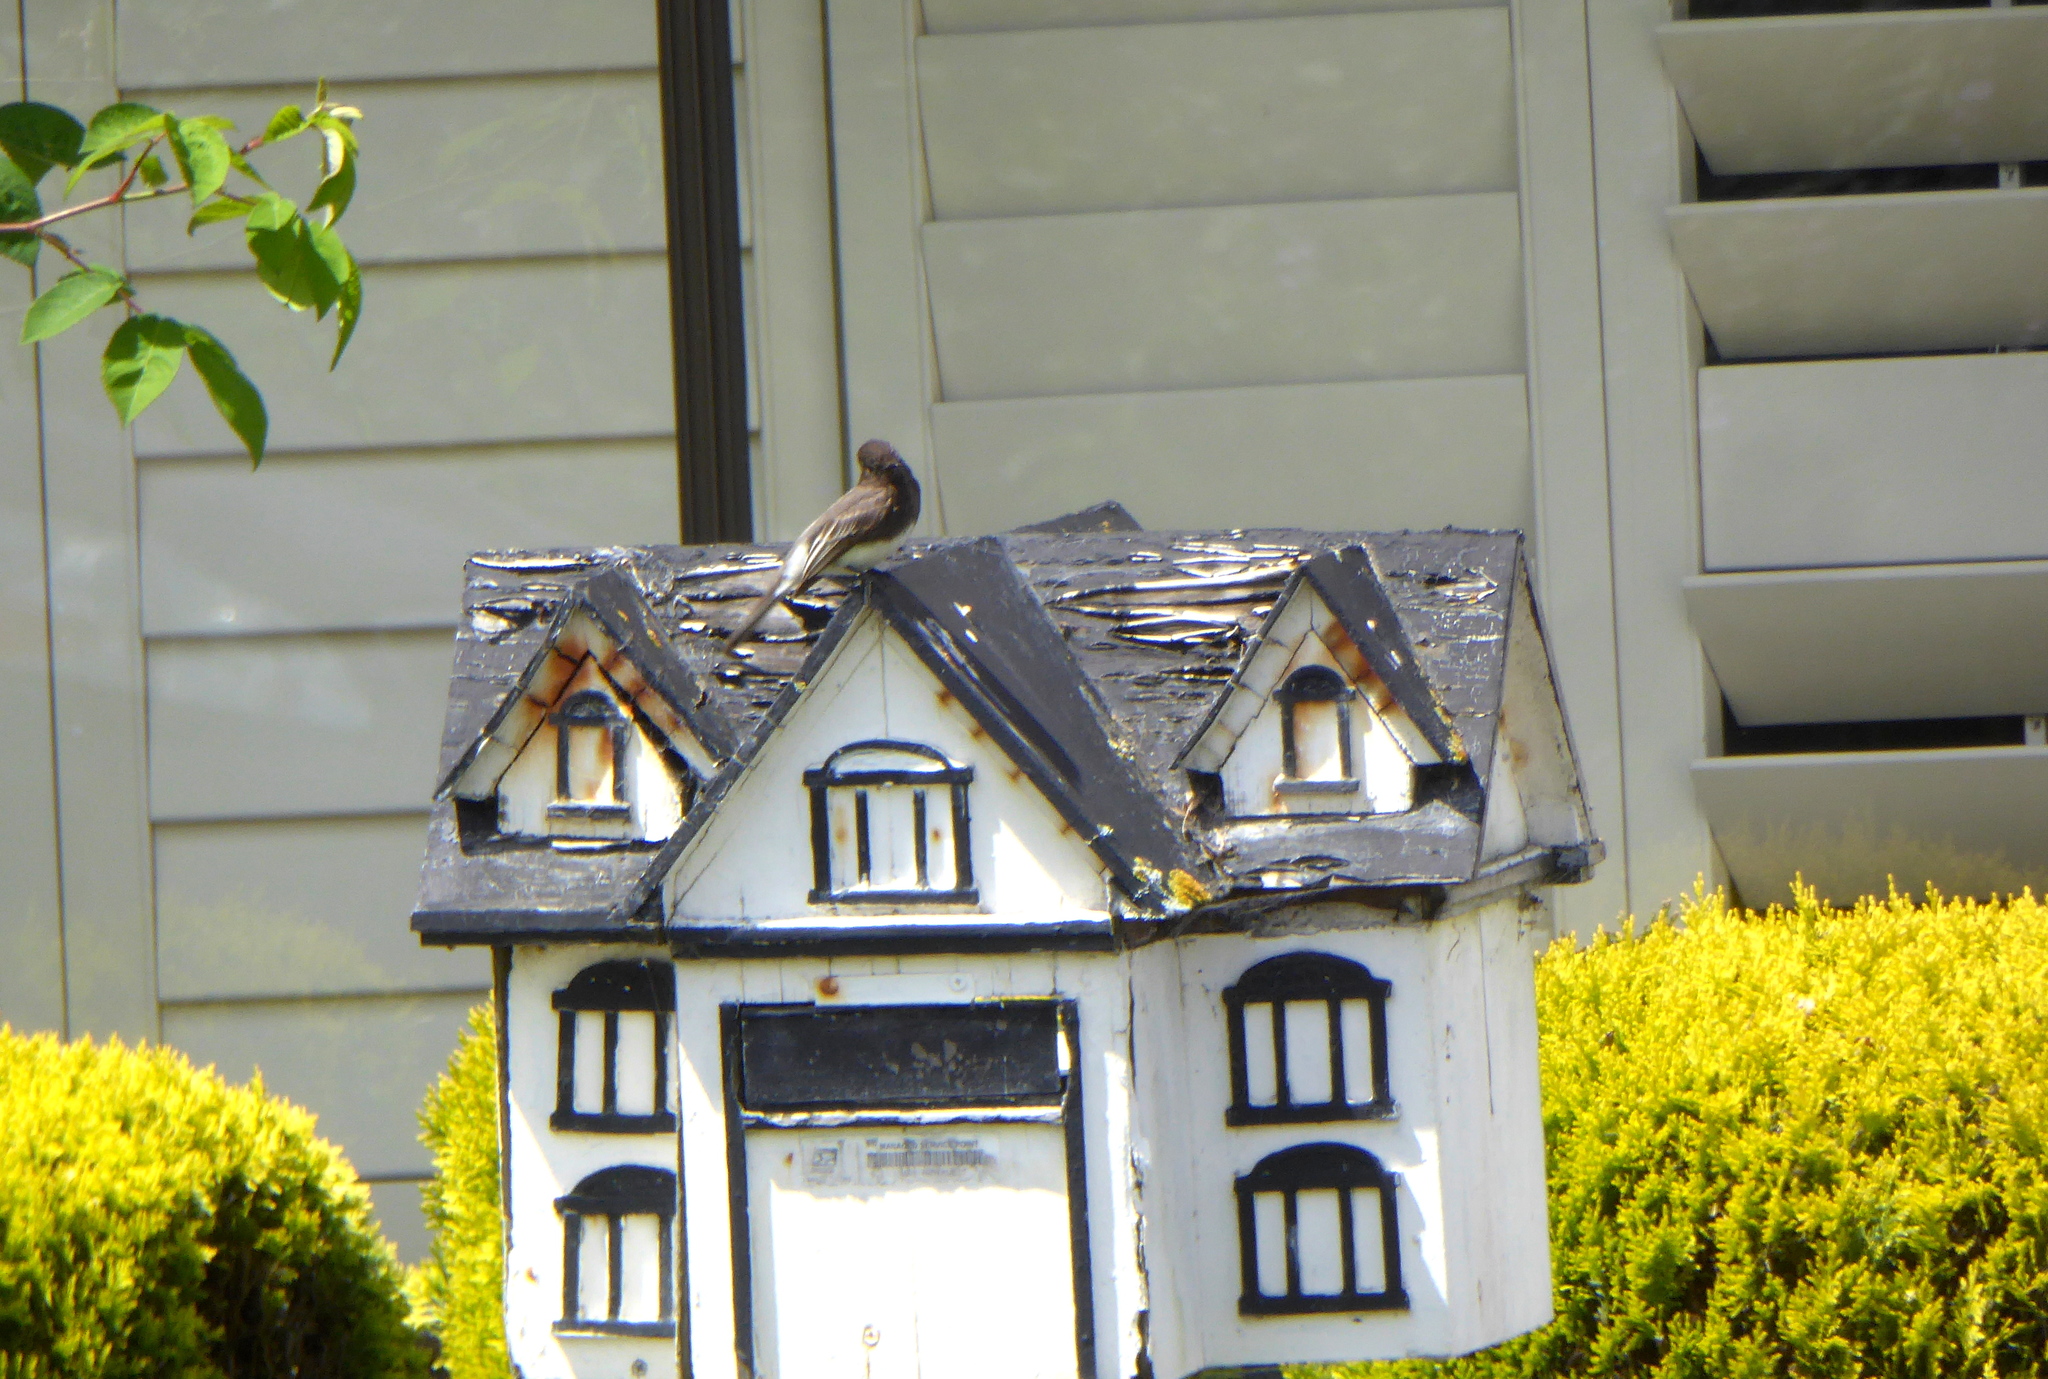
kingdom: Animalia
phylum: Chordata
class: Aves
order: Passeriformes
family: Tyrannidae
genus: Sayornis
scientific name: Sayornis nigricans
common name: Black phoebe
